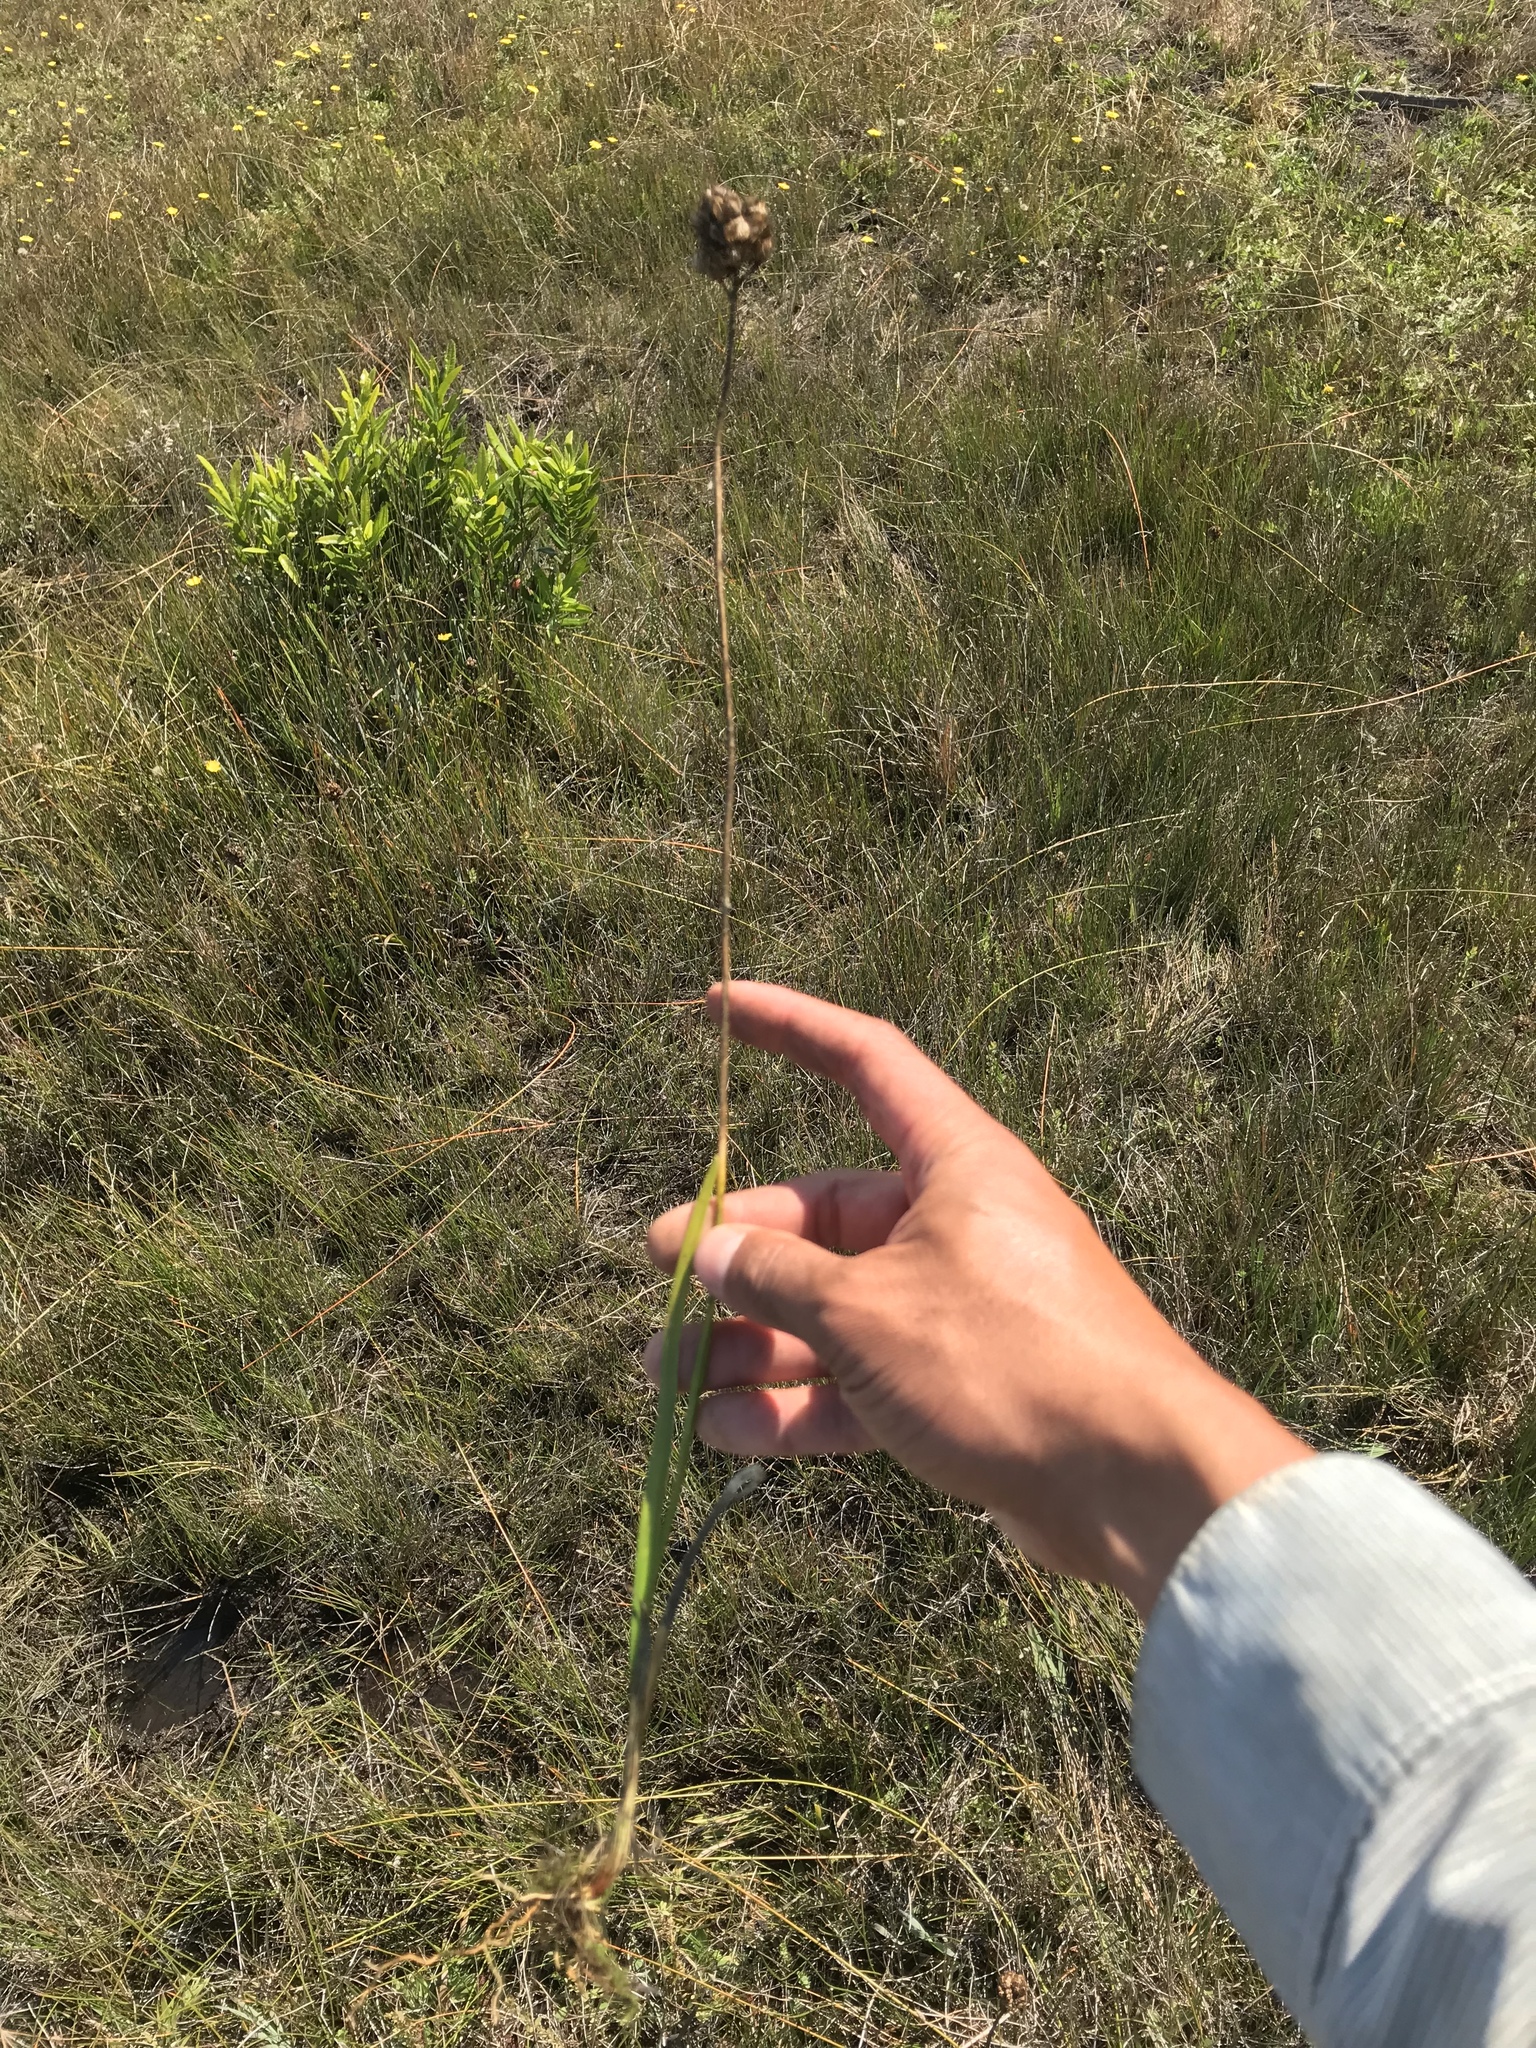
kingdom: Plantae
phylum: Tracheophyta
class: Liliopsida
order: Alismatales
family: Tofieldiaceae
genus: Triantha
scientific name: Triantha occidentalis
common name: Western false asphodel
